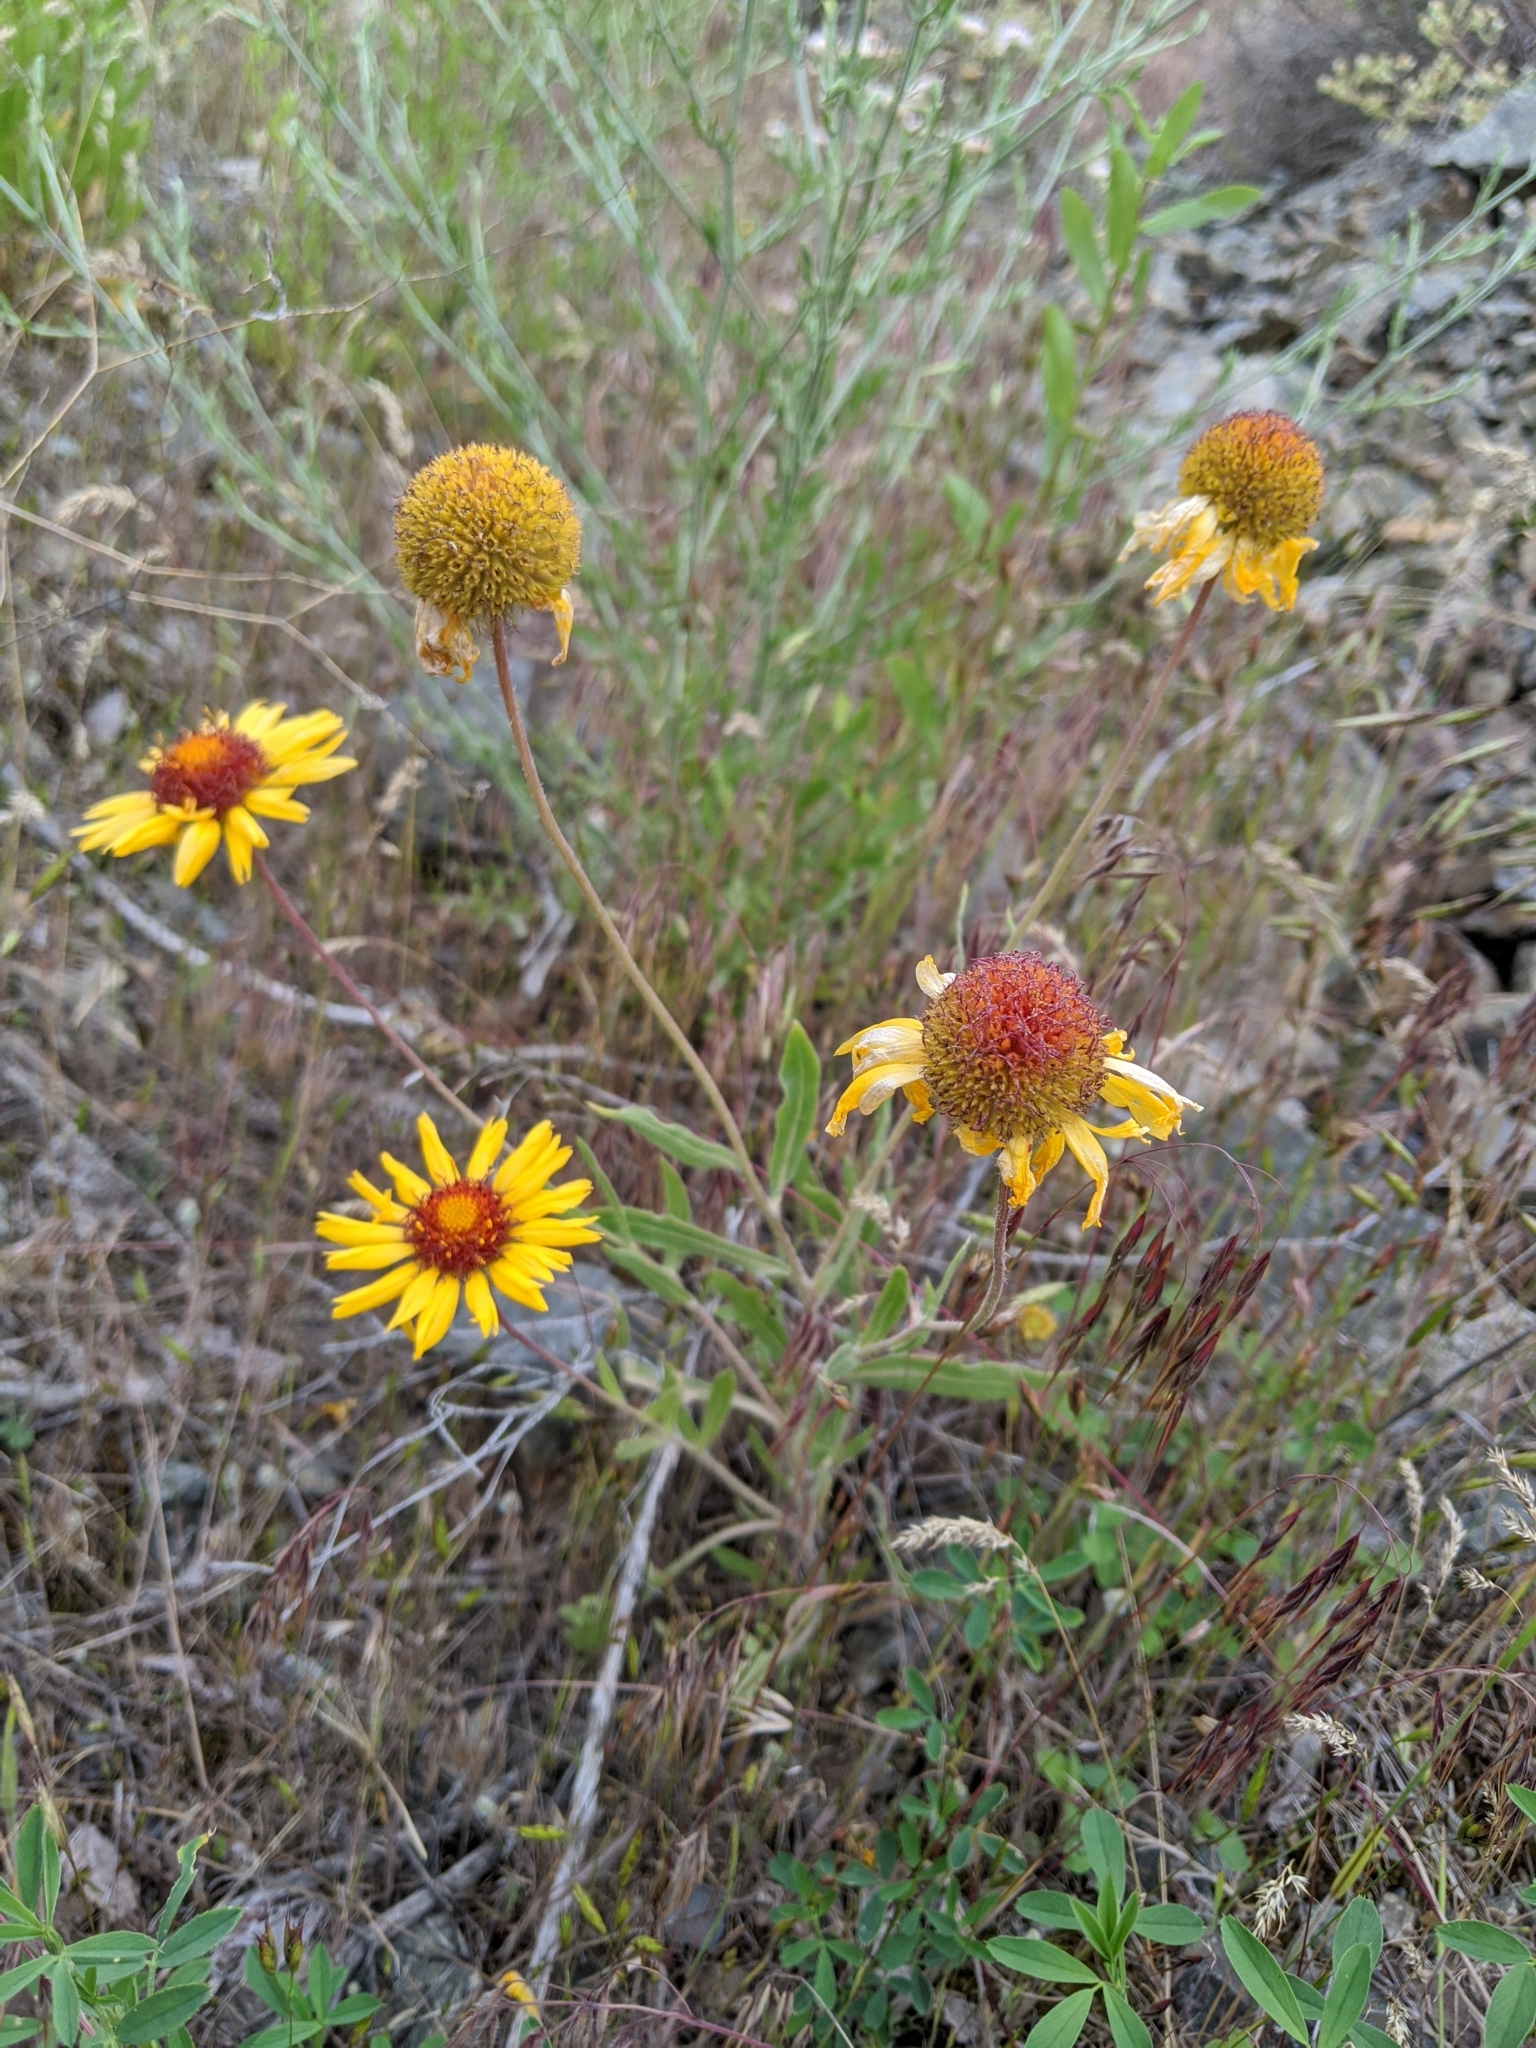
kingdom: Plantae
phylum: Tracheophyta
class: Magnoliopsida
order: Asterales
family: Asteraceae
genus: Gaillardia
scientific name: Gaillardia aristata
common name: Blanket-flower
